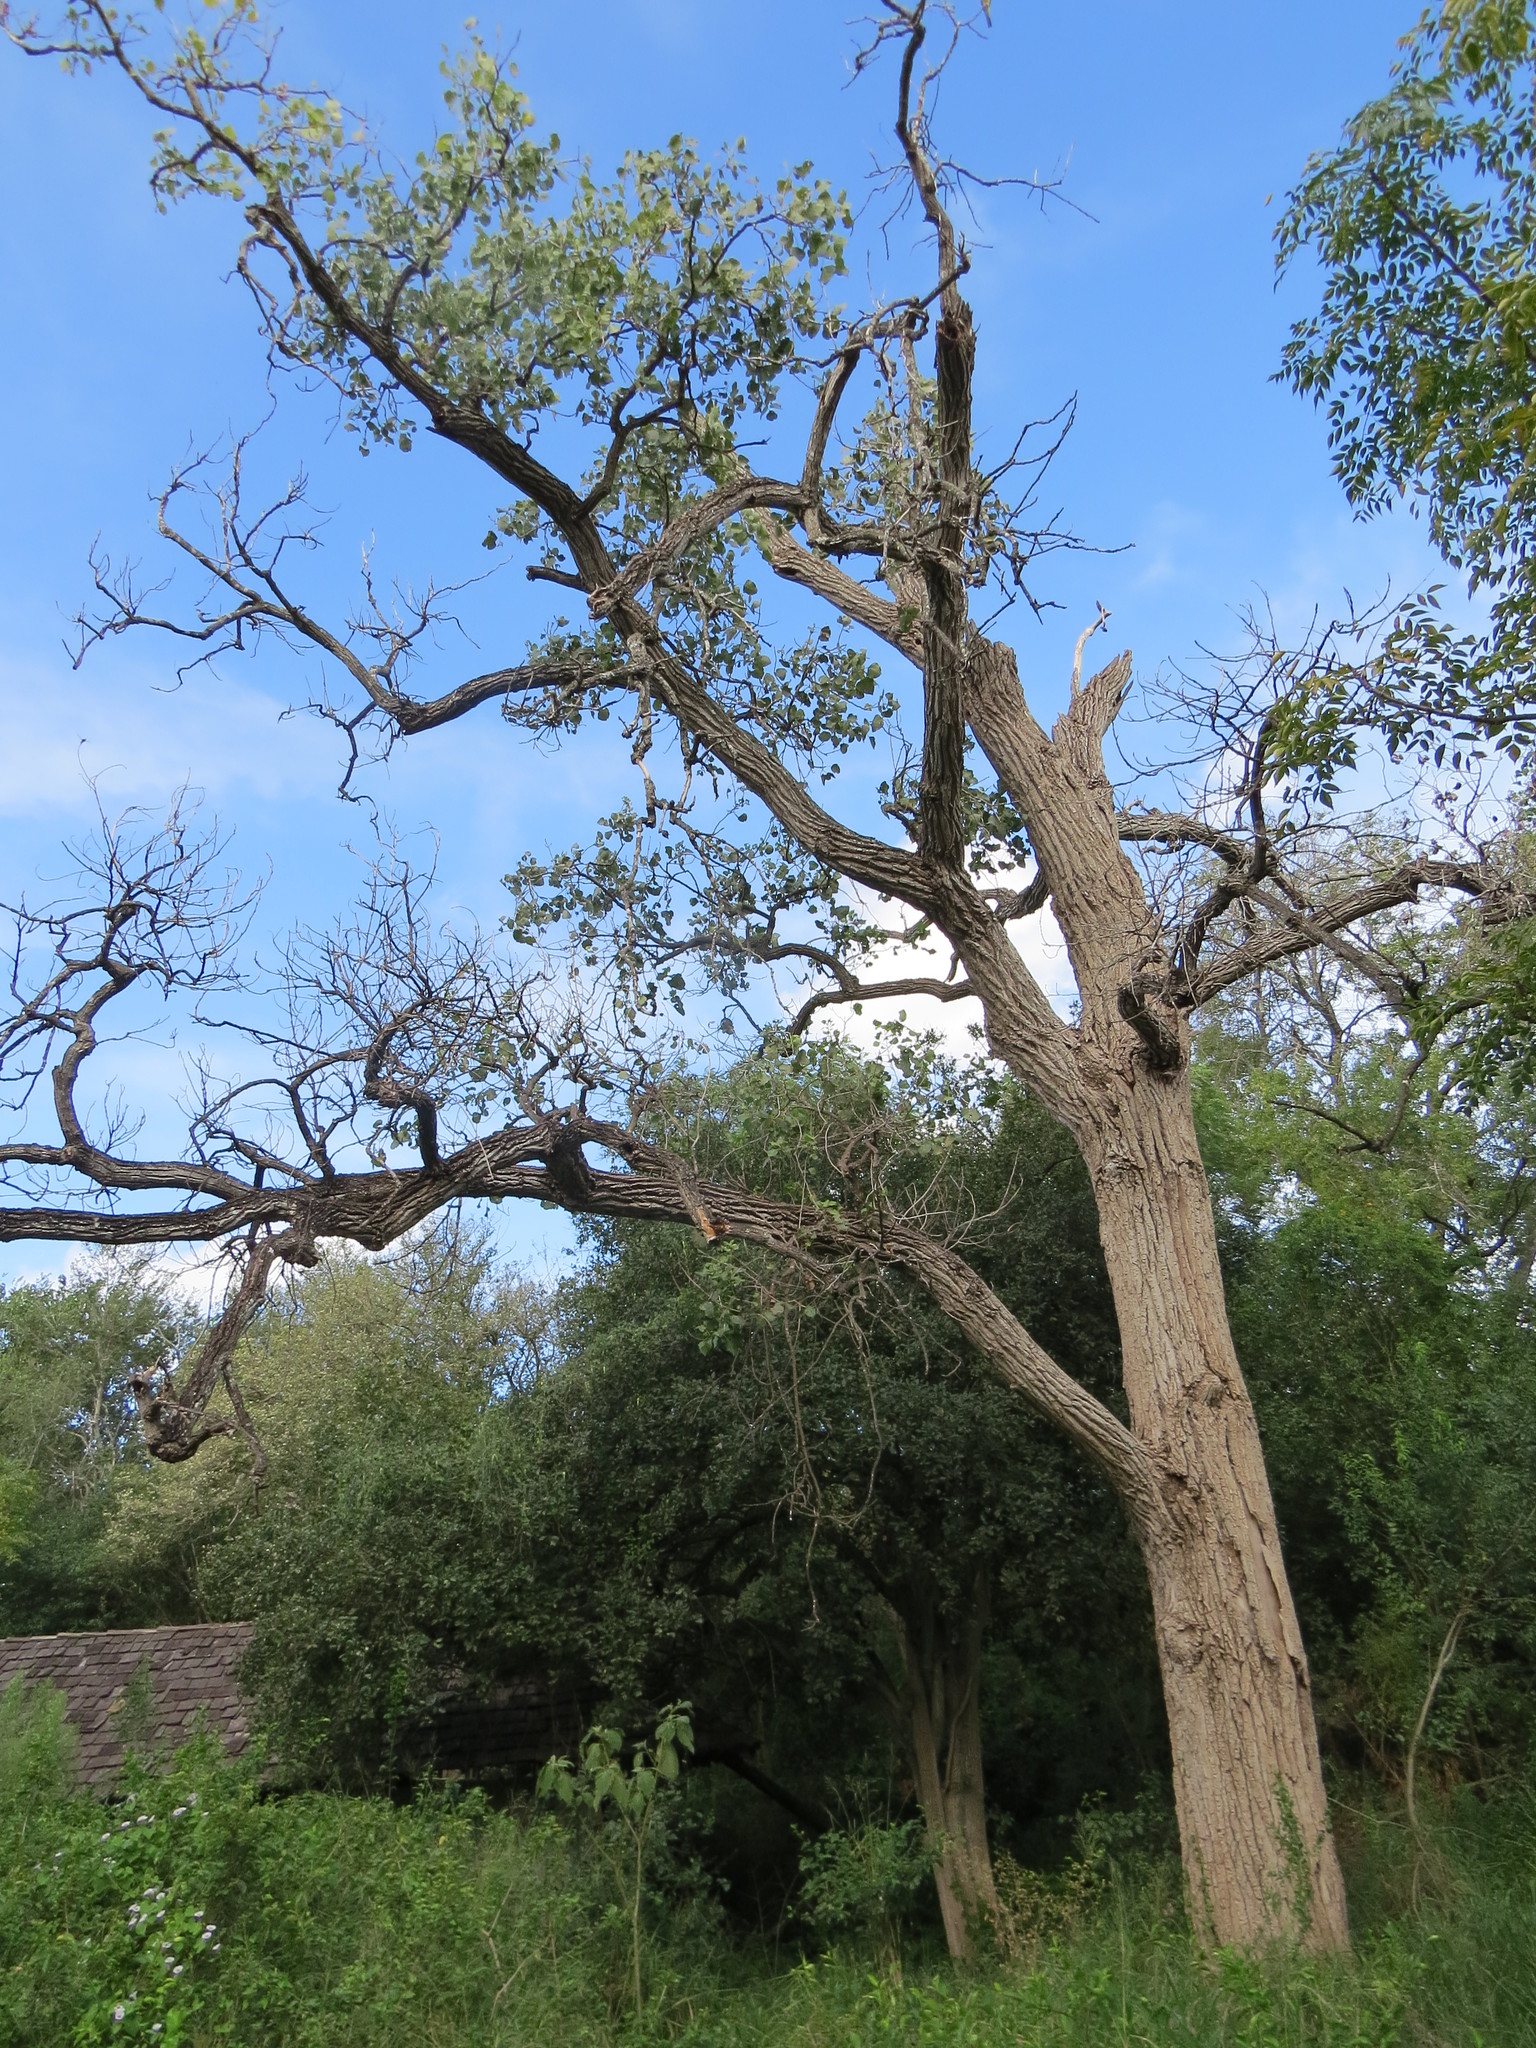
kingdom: Plantae
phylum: Tracheophyta
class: Magnoliopsida
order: Malpighiales
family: Salicaceae
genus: Populus
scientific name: Populus deltoides
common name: Eastern cottonwood
